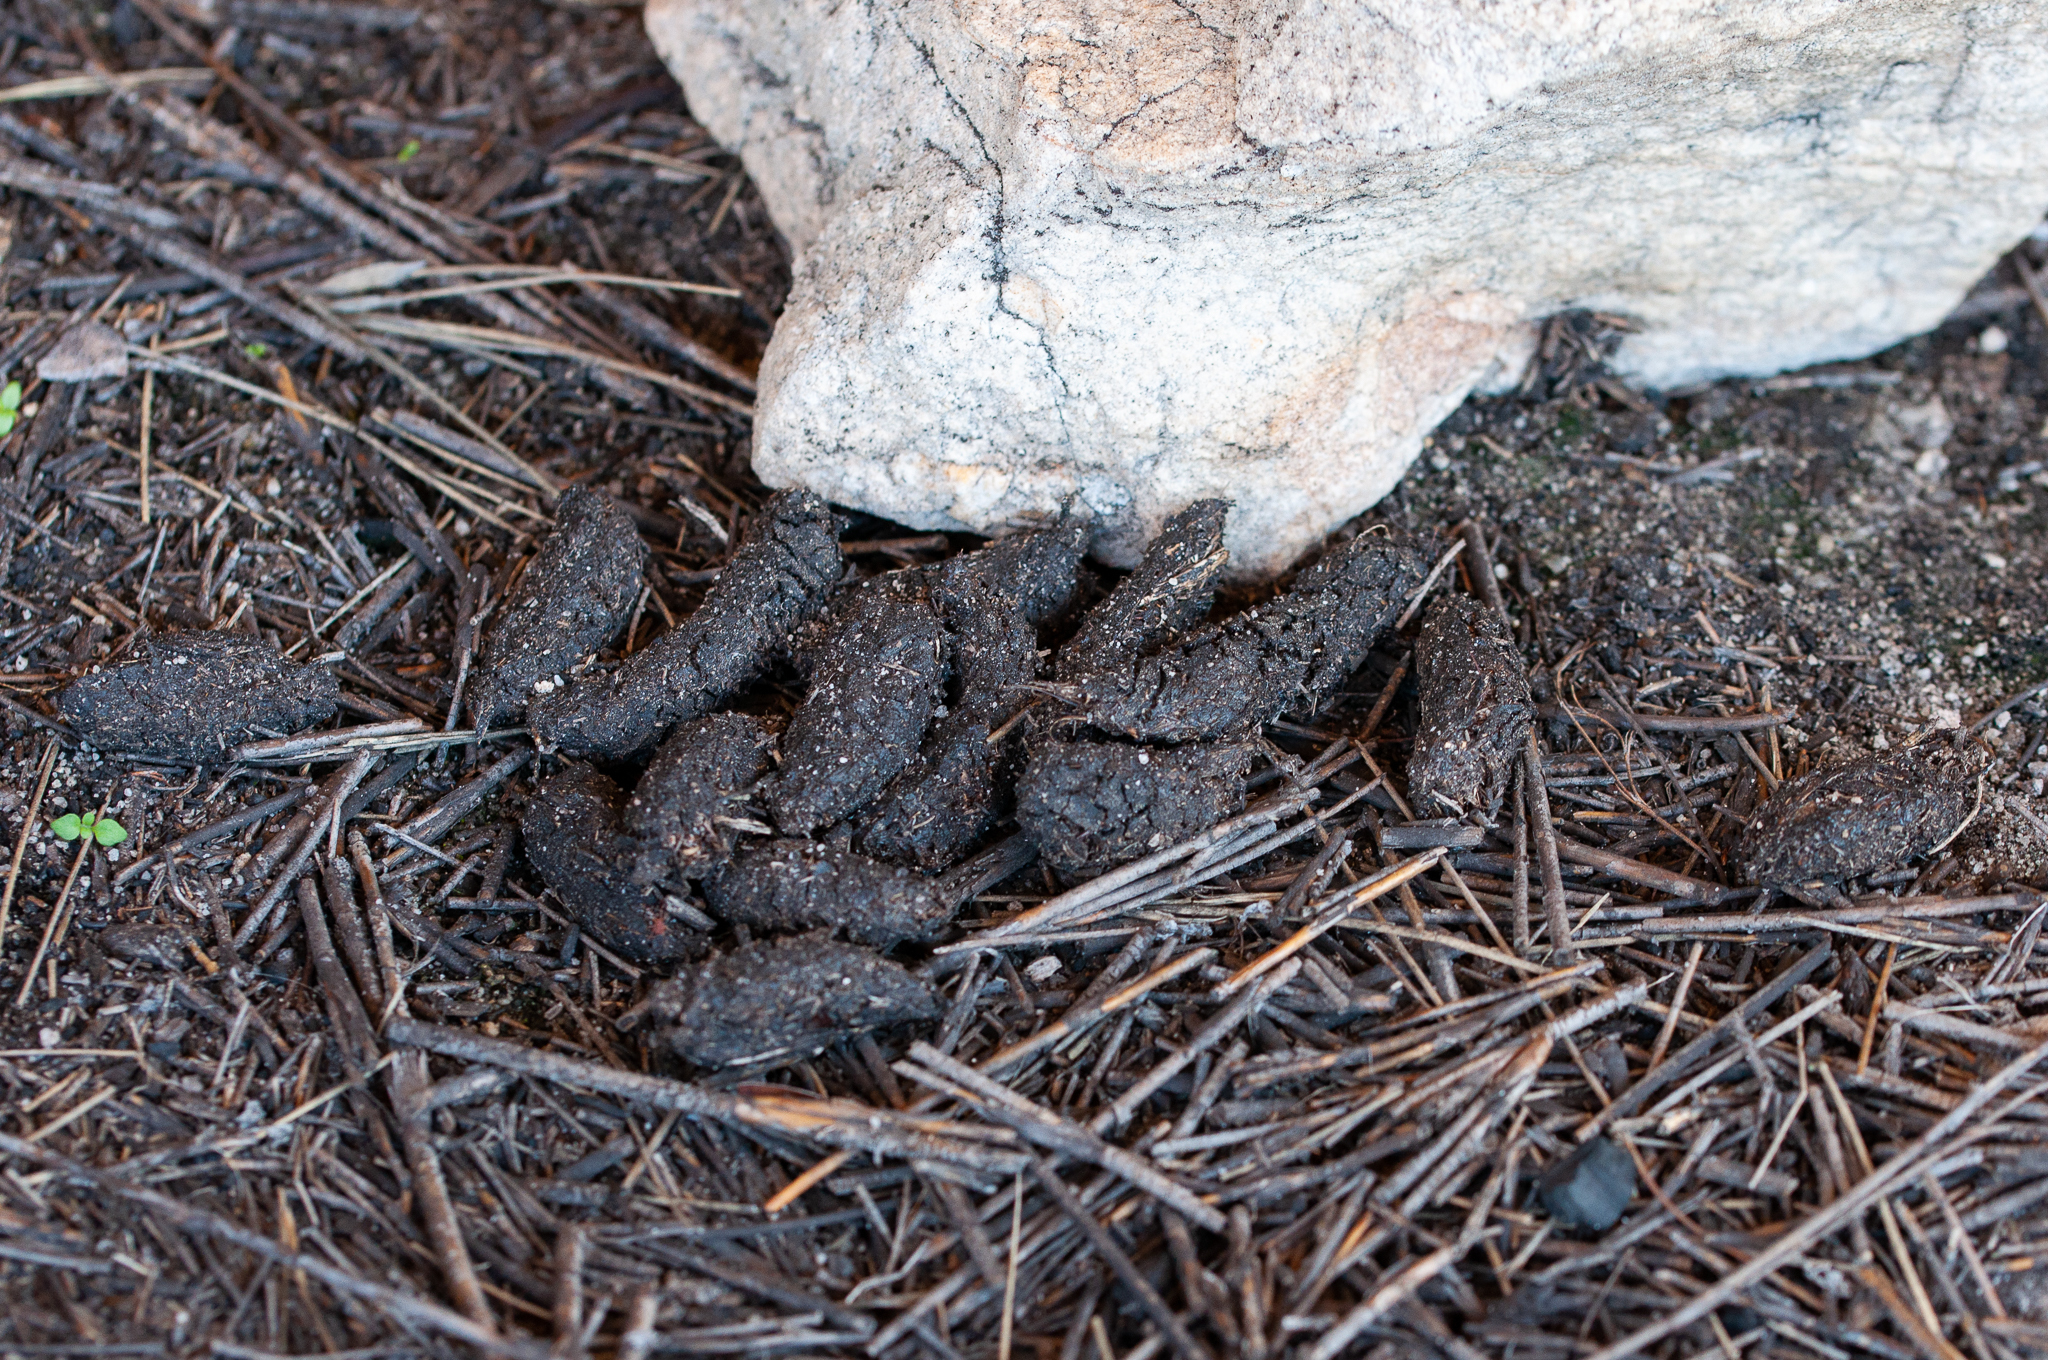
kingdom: Animalia
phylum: Chordata
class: Mammalia
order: Rodentia
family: Hystricidae
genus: Hystrix
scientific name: Hystrix africaeaustralis
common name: Cape porcupine
